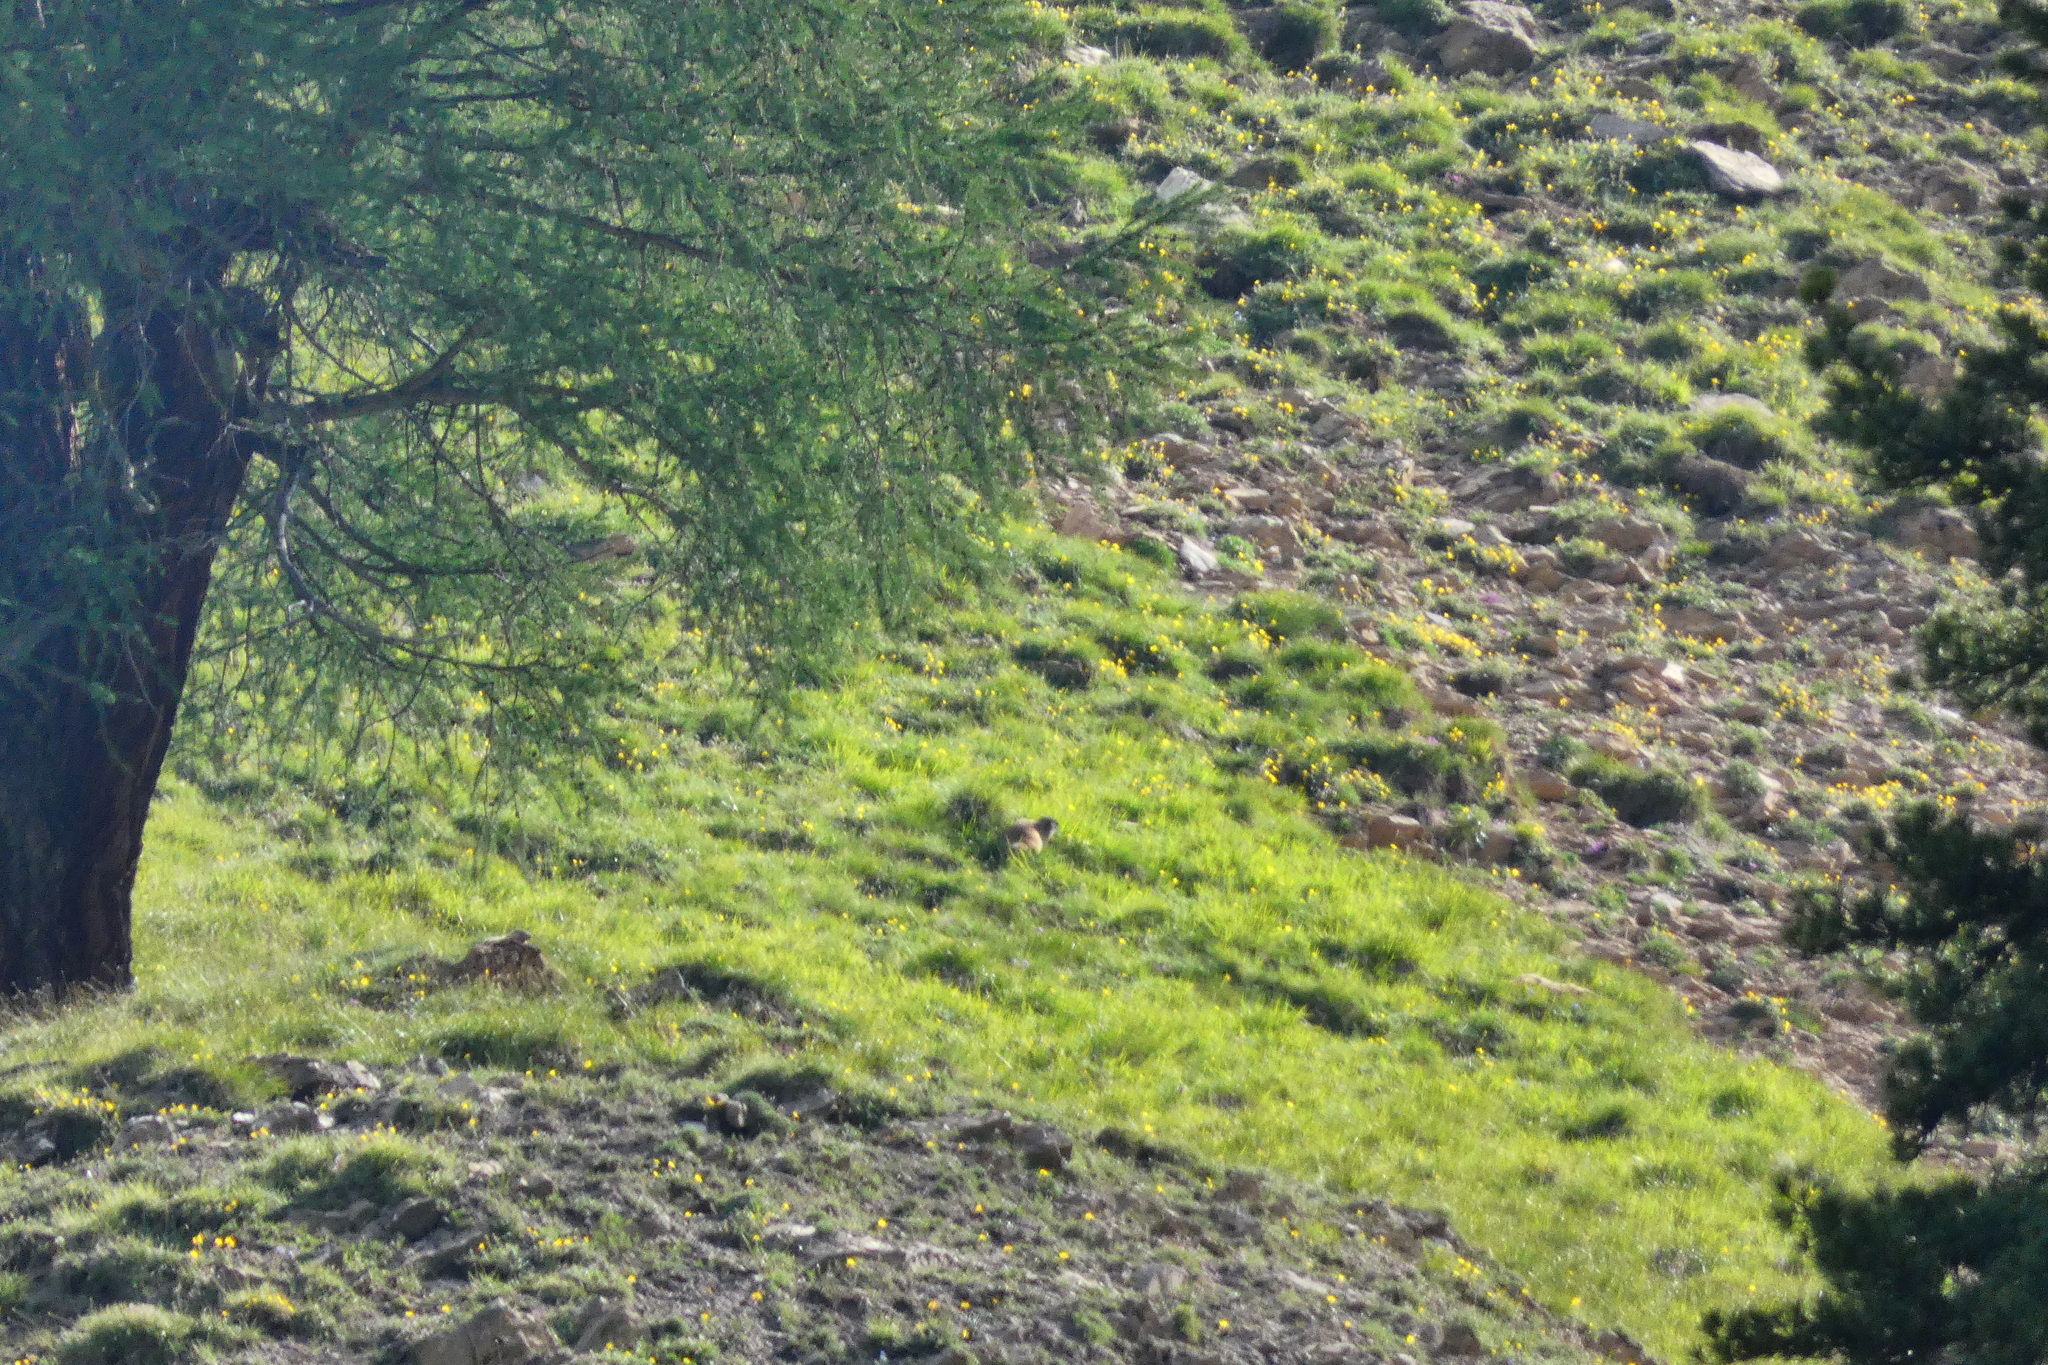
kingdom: Animalia
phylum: Chordata
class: Mammalia
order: Rodentia
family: Sciuridae
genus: Marmota
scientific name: Marmota marmota
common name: Alpine marmot
